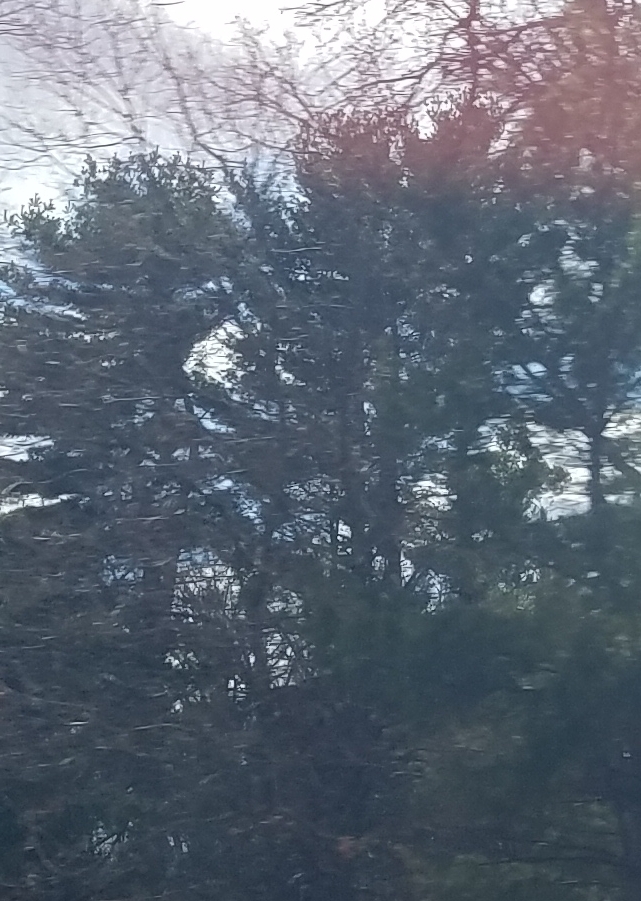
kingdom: Plantae
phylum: Tracheophyta
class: Pinopsida
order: Pinales
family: Pinaceae
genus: Pinus
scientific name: Pinus strobus
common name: Weymouth pine
